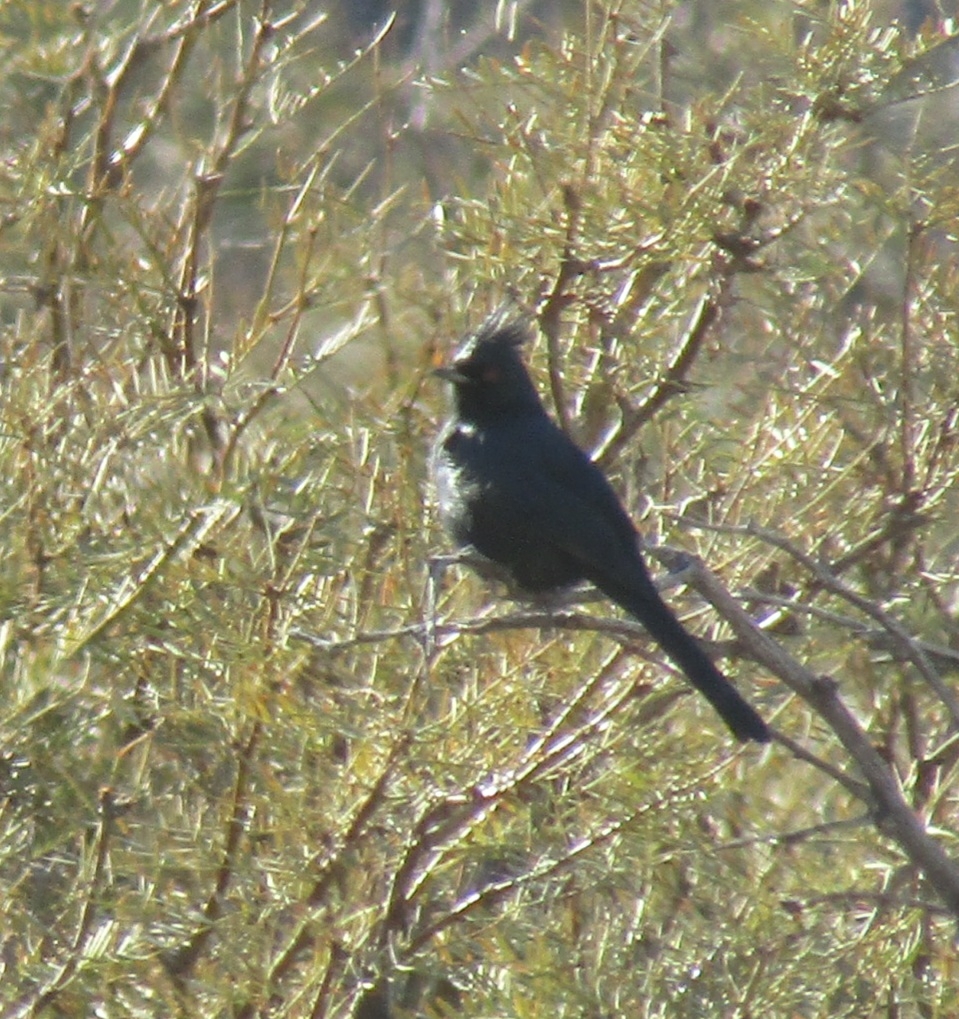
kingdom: Animalia
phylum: Chordata
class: Aves
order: Passeriformes
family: Ptilogonatidae
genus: Phainopepla
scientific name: Phainopepla nitens
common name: Phainopepla
